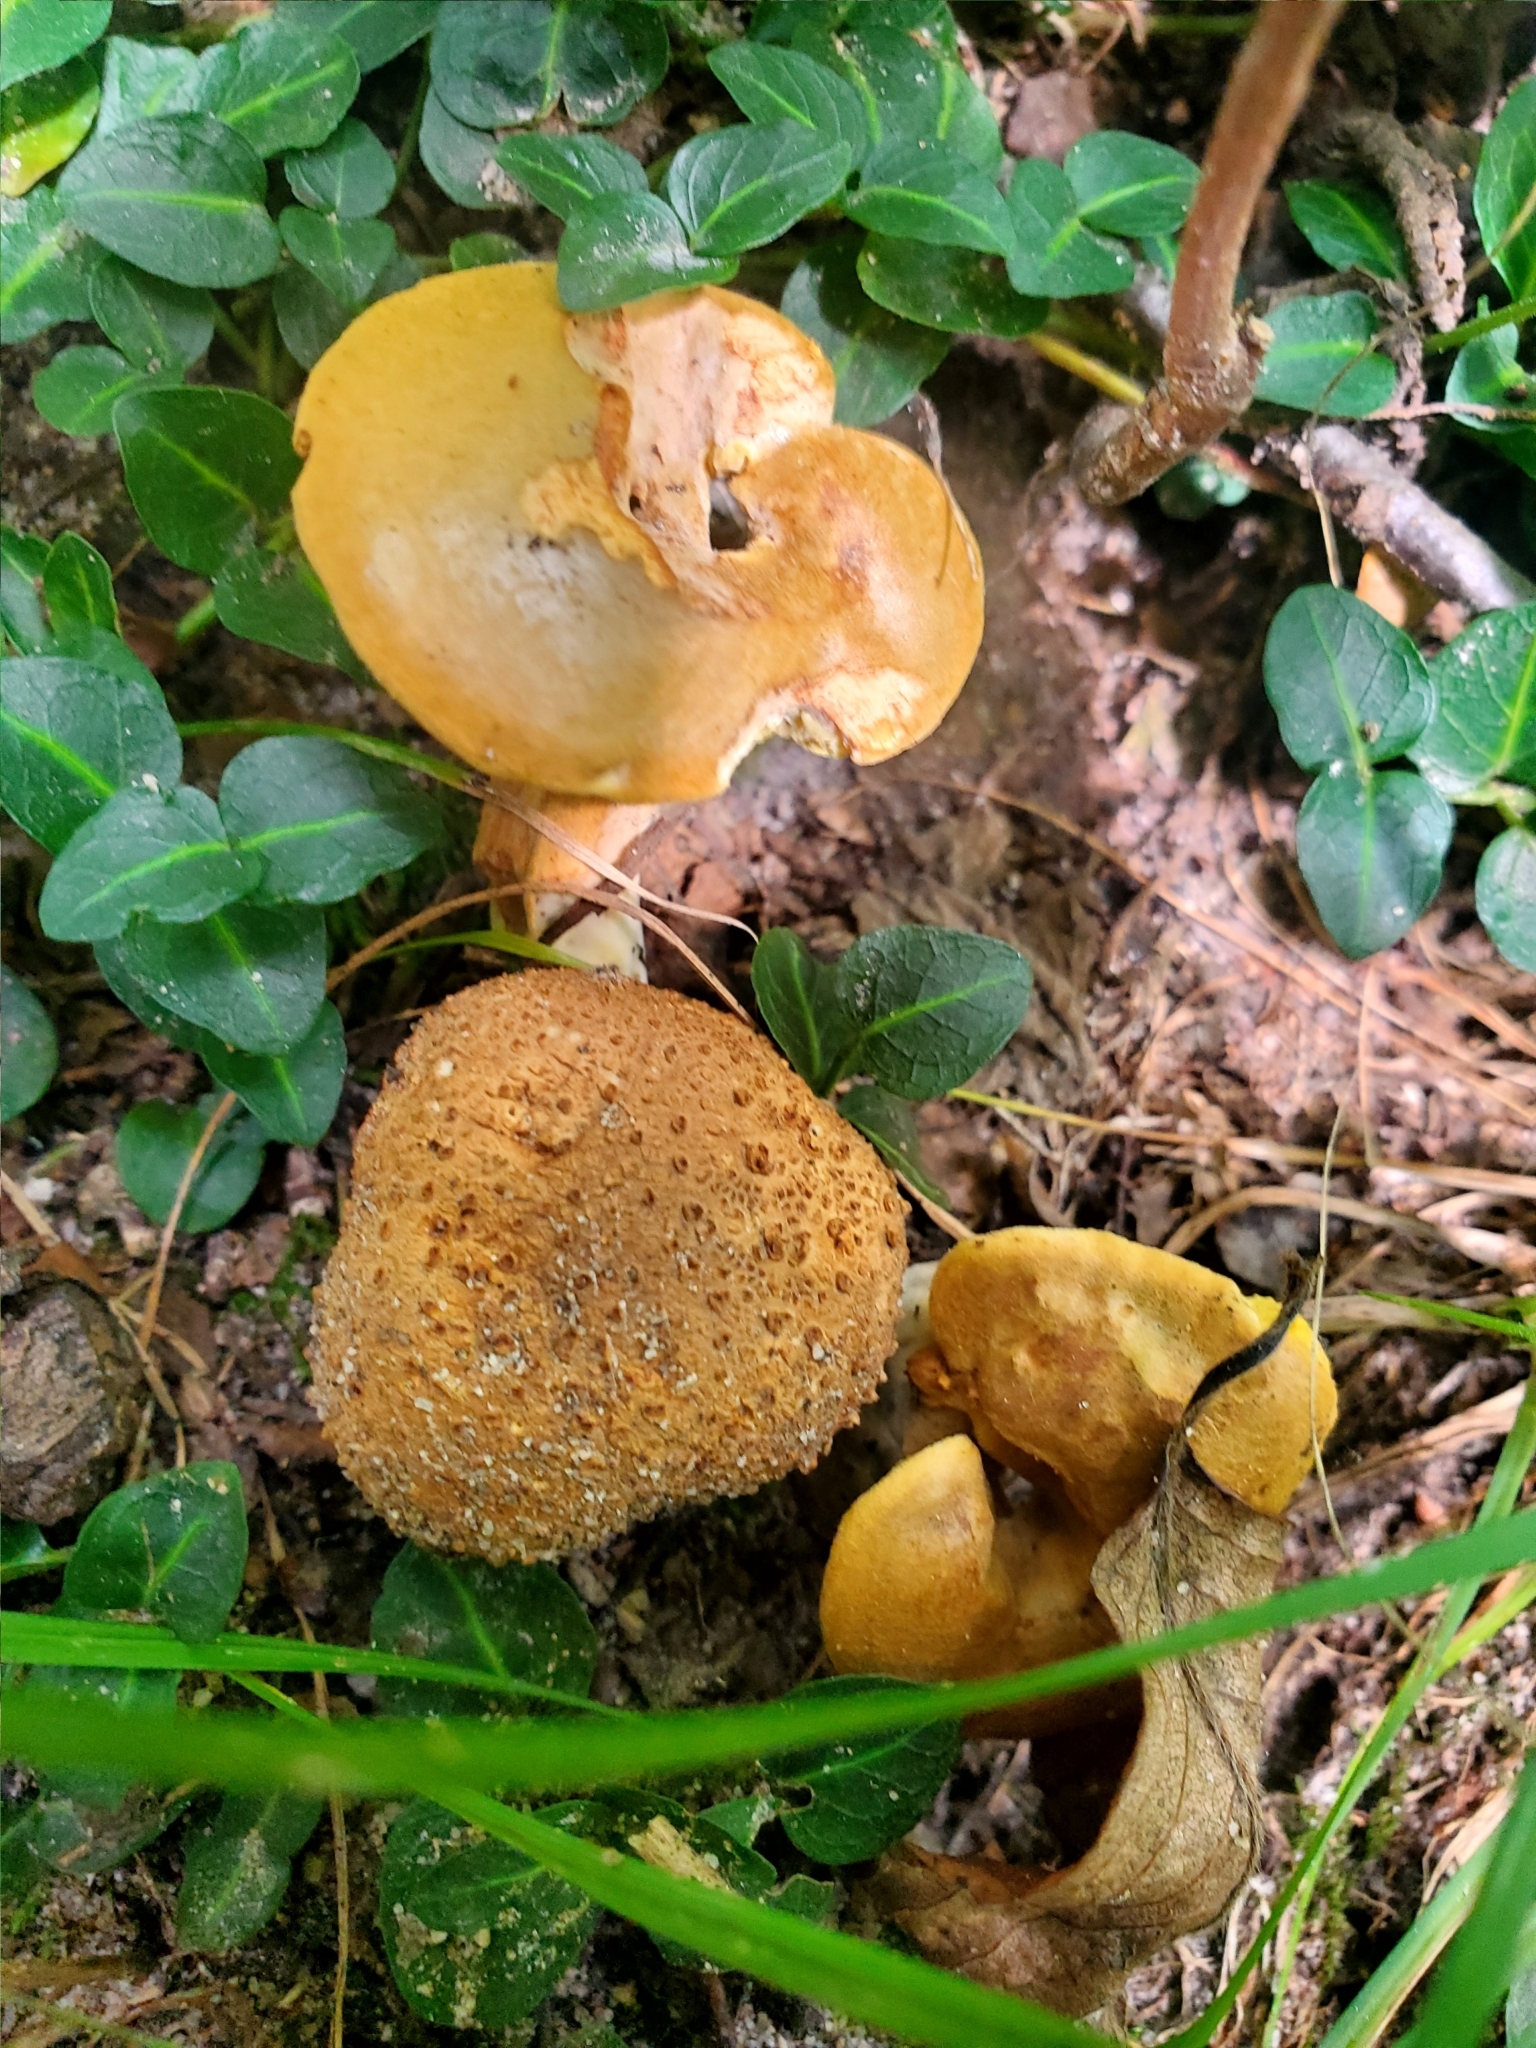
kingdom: Fungi
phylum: Basidiomycota
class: Agaricomycetes
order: Boletales
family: Boletaceae
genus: Pseudoboletus
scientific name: Pseudoboletus parasiticus
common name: Parasitic bolete
